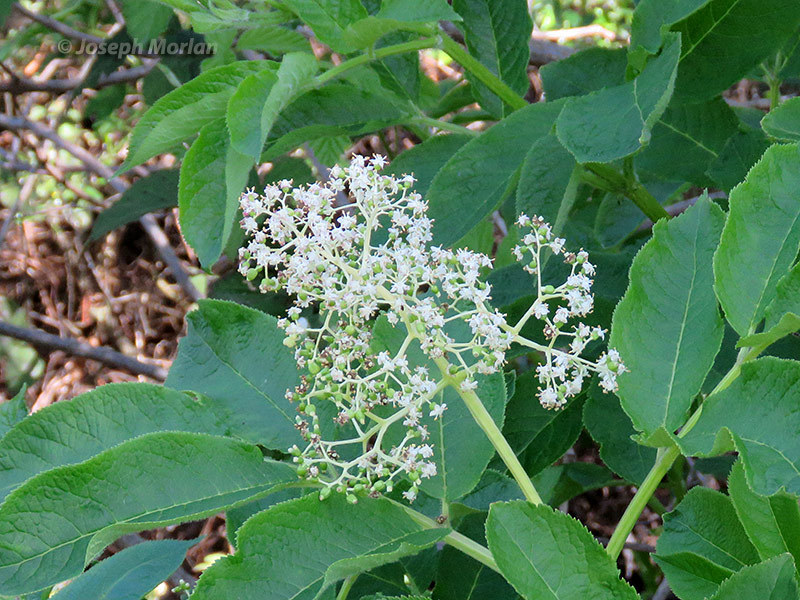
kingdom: Plantae
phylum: Tracheophyta
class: Magnoliopsida
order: Dipsacales
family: Viburnaceae
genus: Sambucus
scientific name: Sambucus racemosa
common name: Red-berried elder
